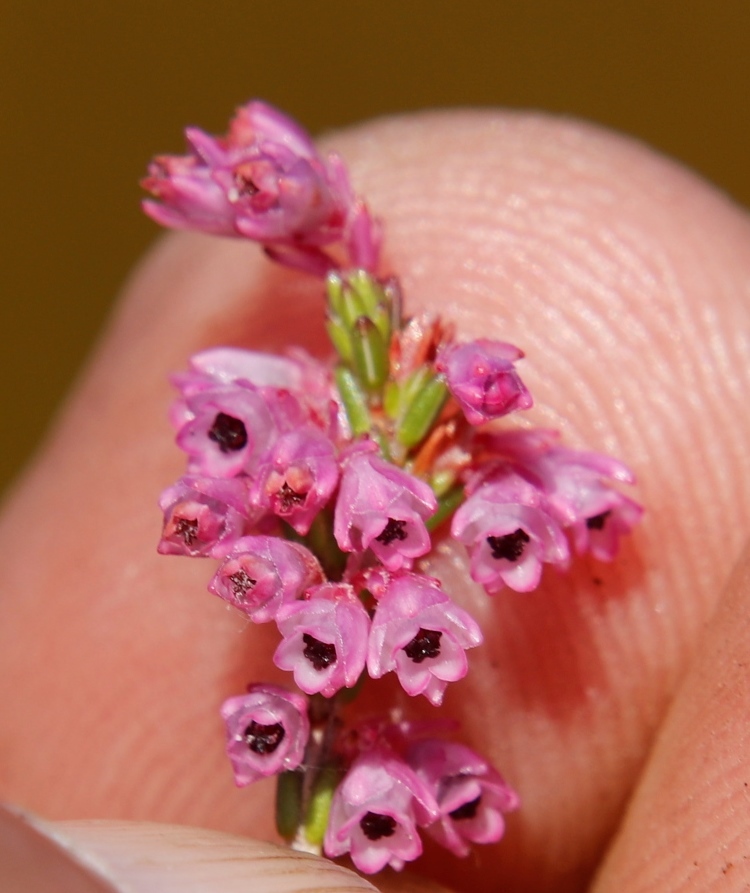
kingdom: Plantae
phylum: Tracheophyta
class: Magnoliopsida
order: Ericales
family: Ericaceae
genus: Erica
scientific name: Erica gnaphaloides
